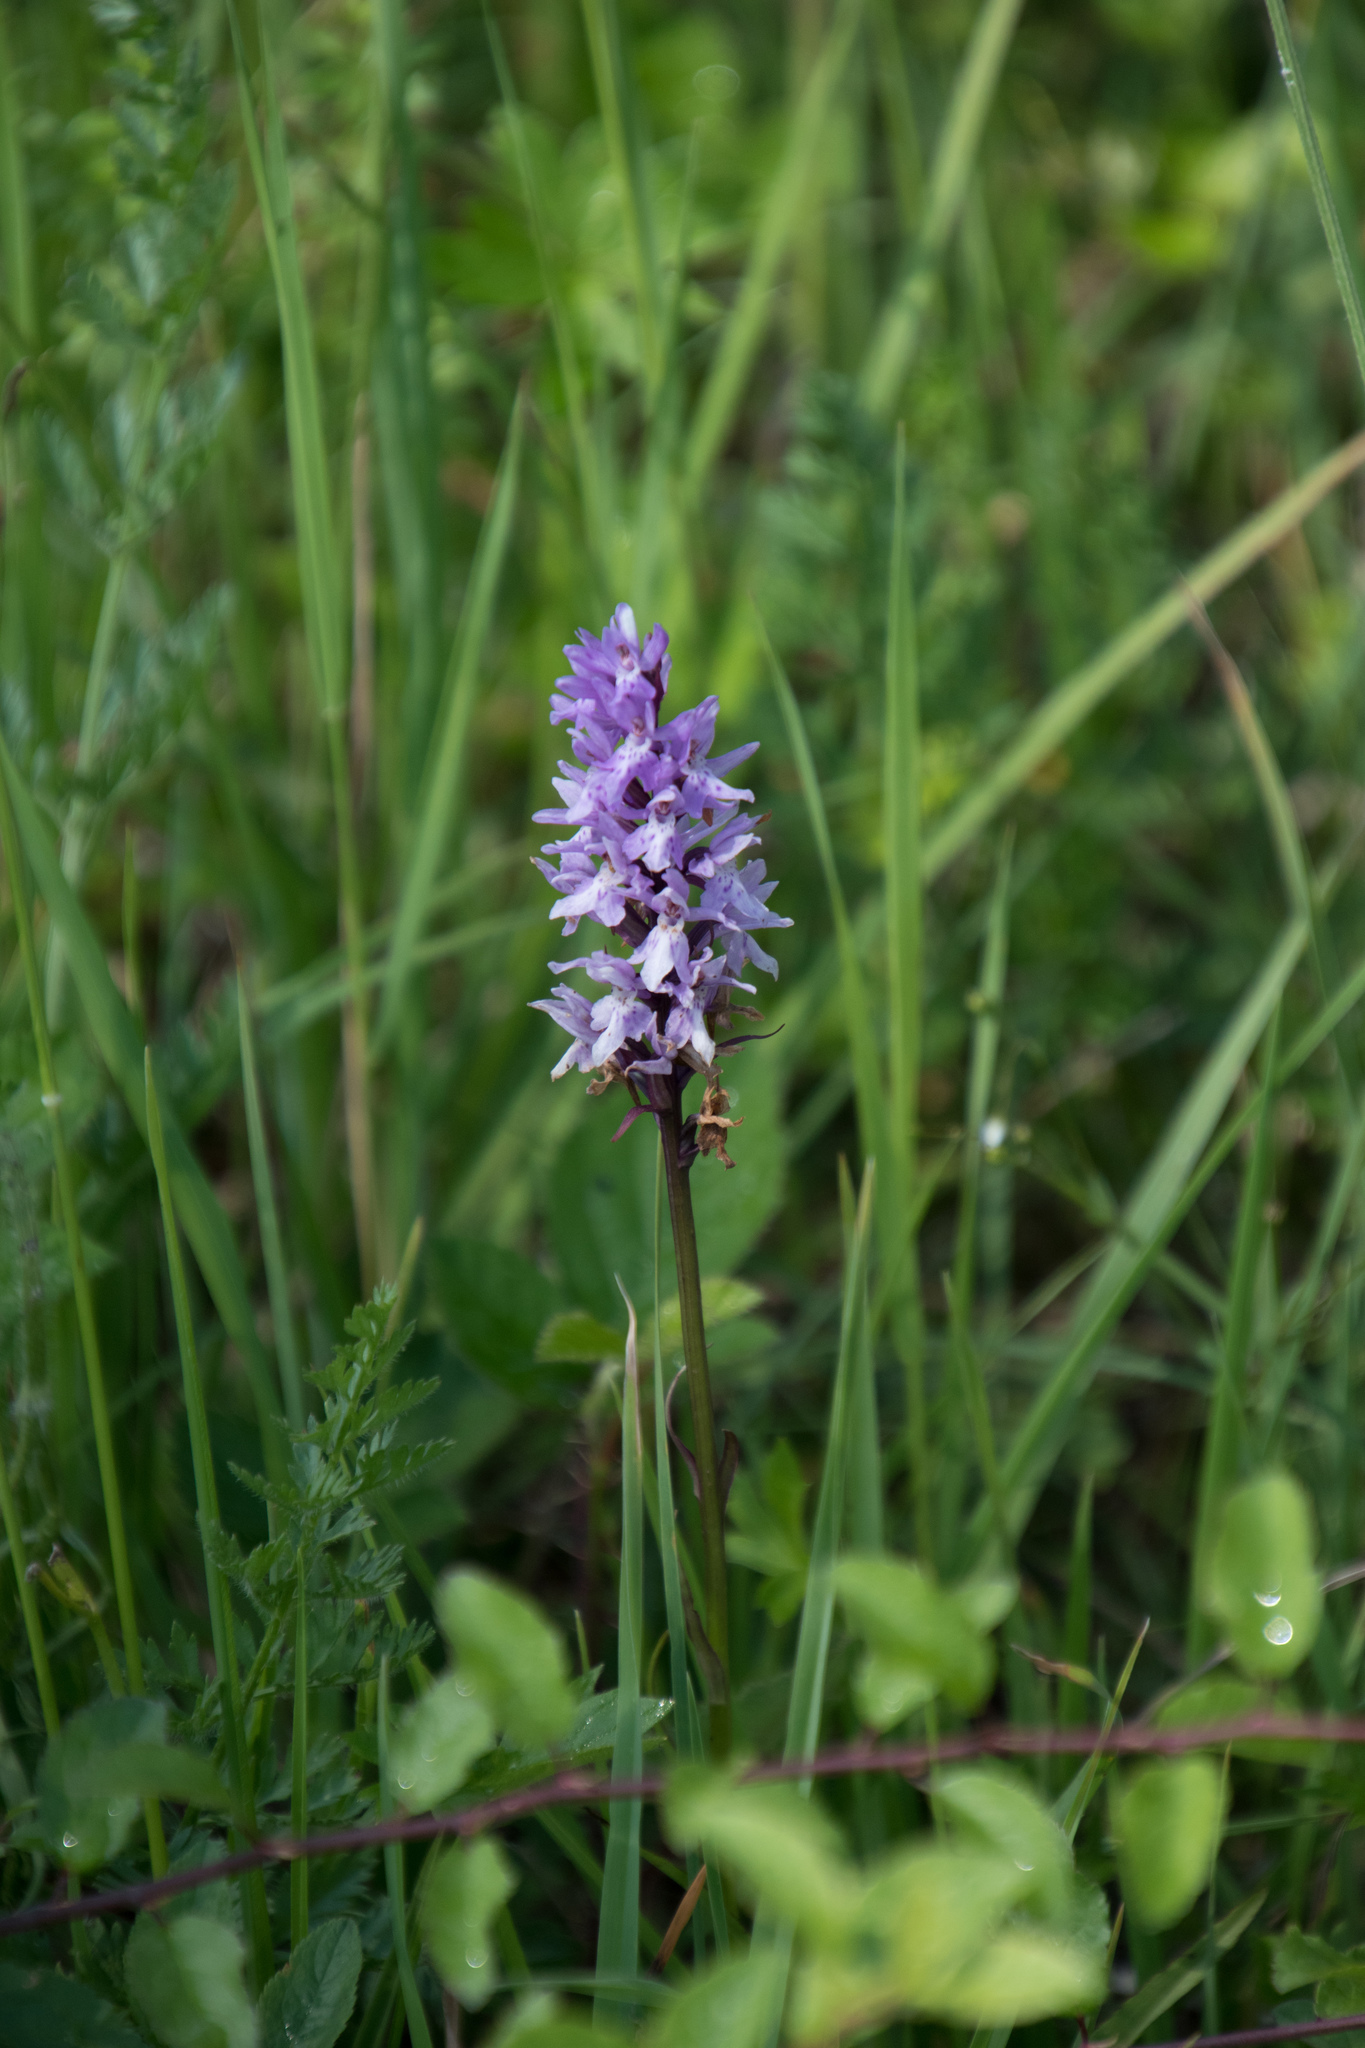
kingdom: Plantae
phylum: Tracheophyta
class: Liliopsida
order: Asparagales
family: Orchidaceae
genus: Dactylorhiza
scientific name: Dactylorhiza maculata
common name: Heath spotted-orchid
